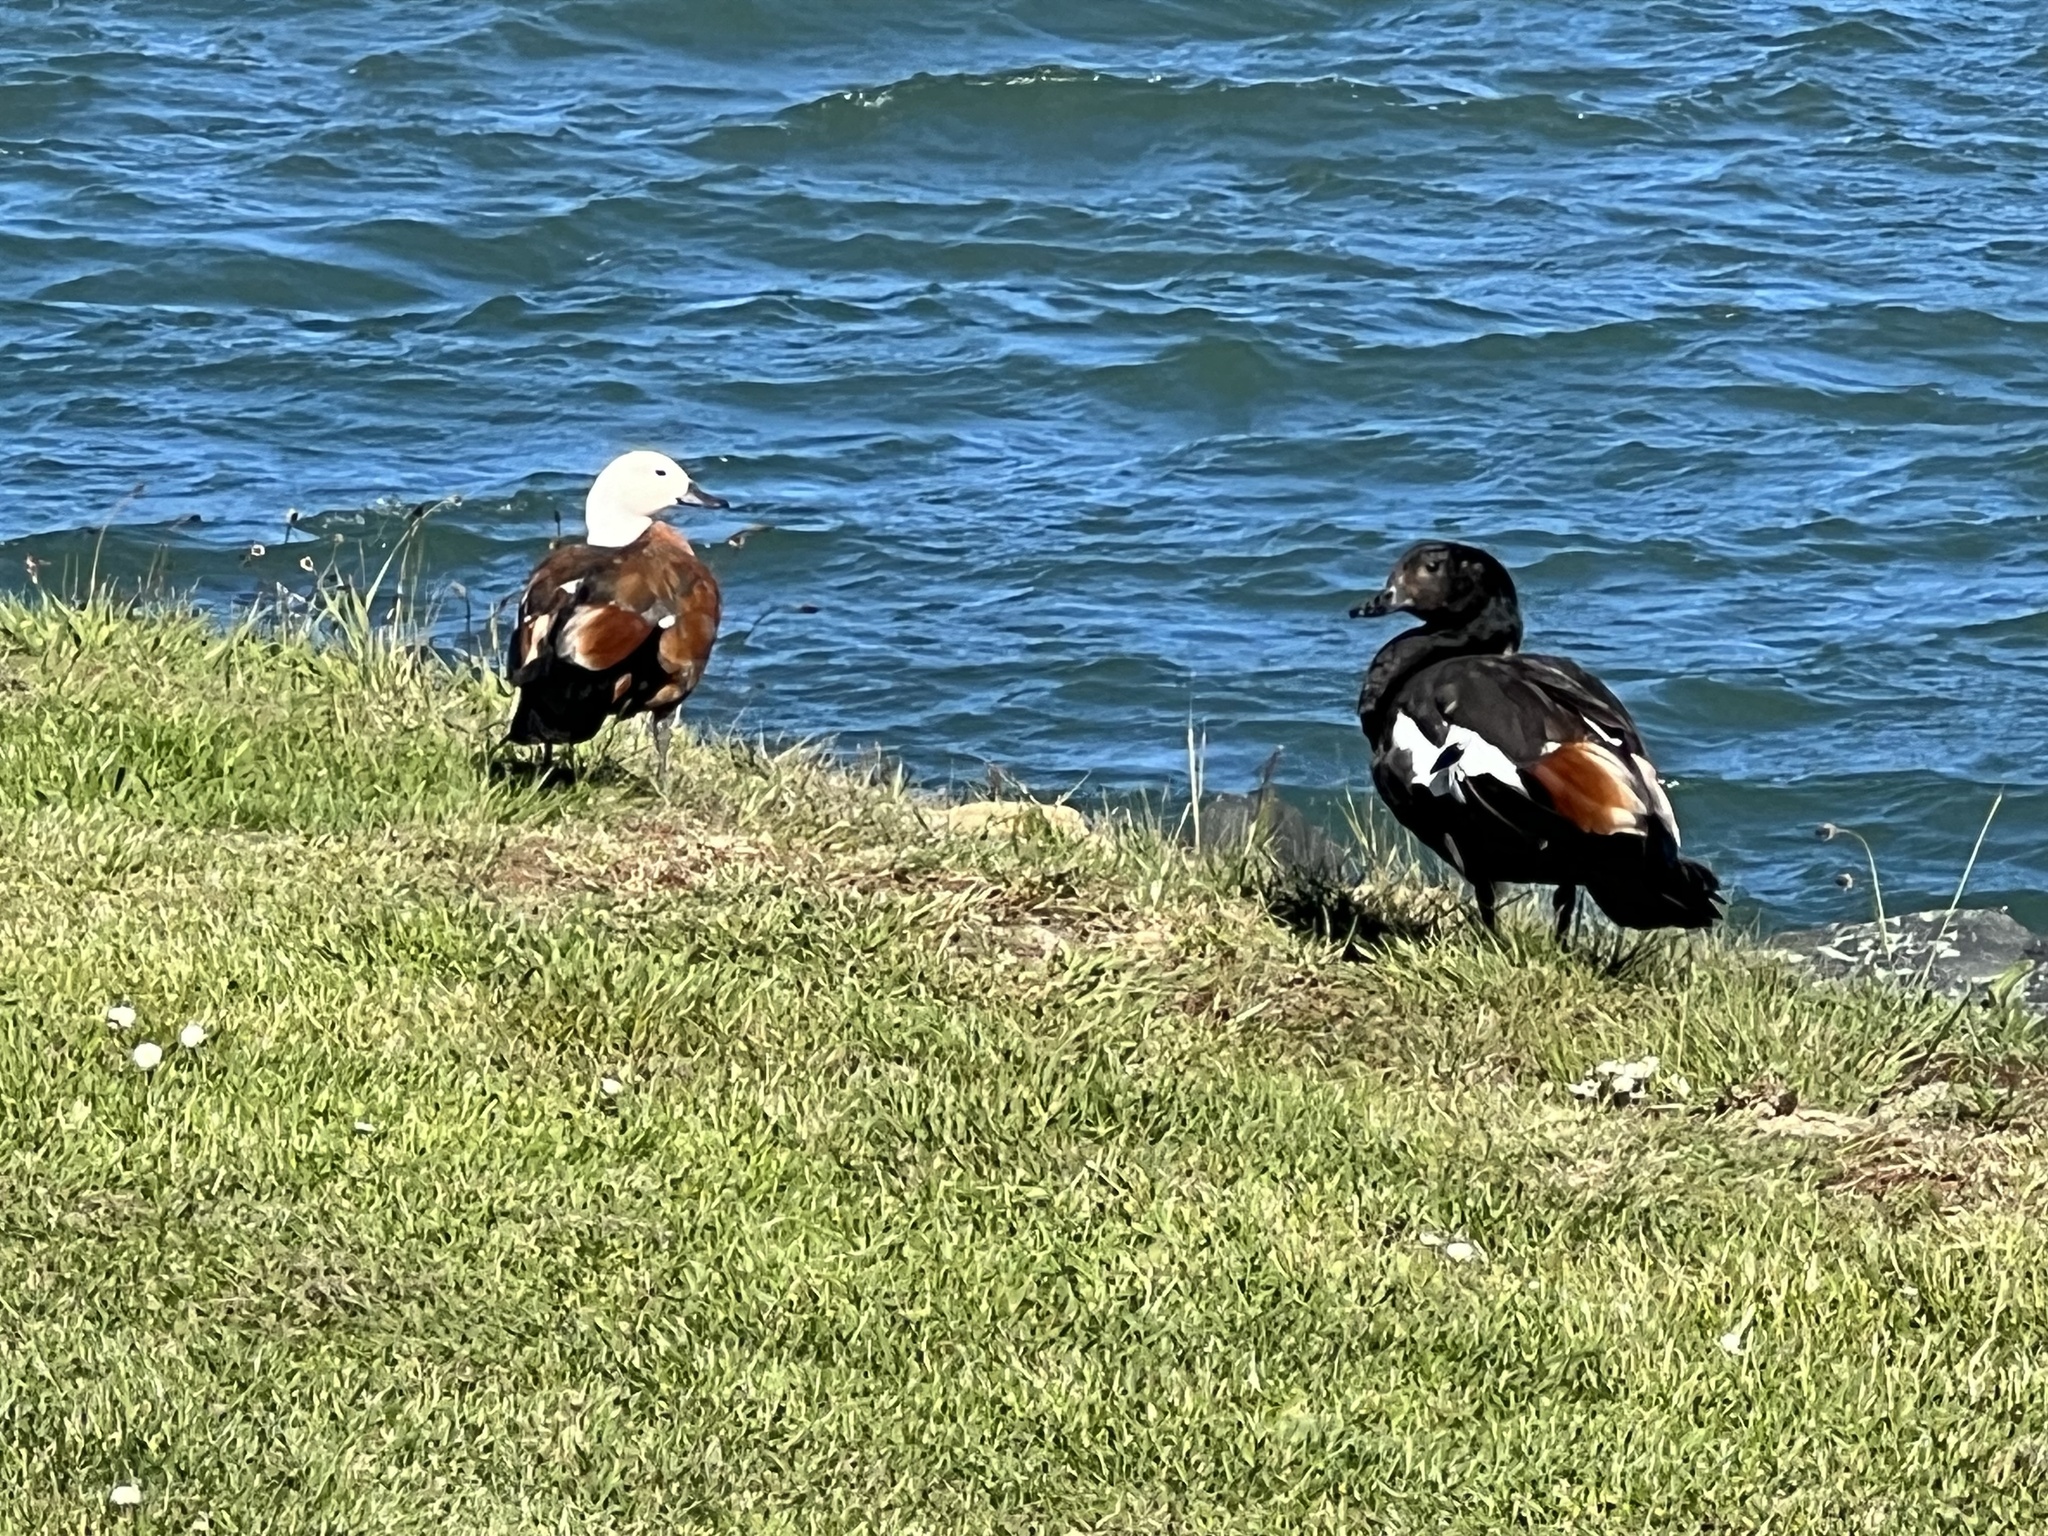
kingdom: Animalia
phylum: Chordata
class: Aves
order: Anseriformes
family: Anatidae
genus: Tadorna
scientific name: Tadorna variegata
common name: Paradise shelduck
